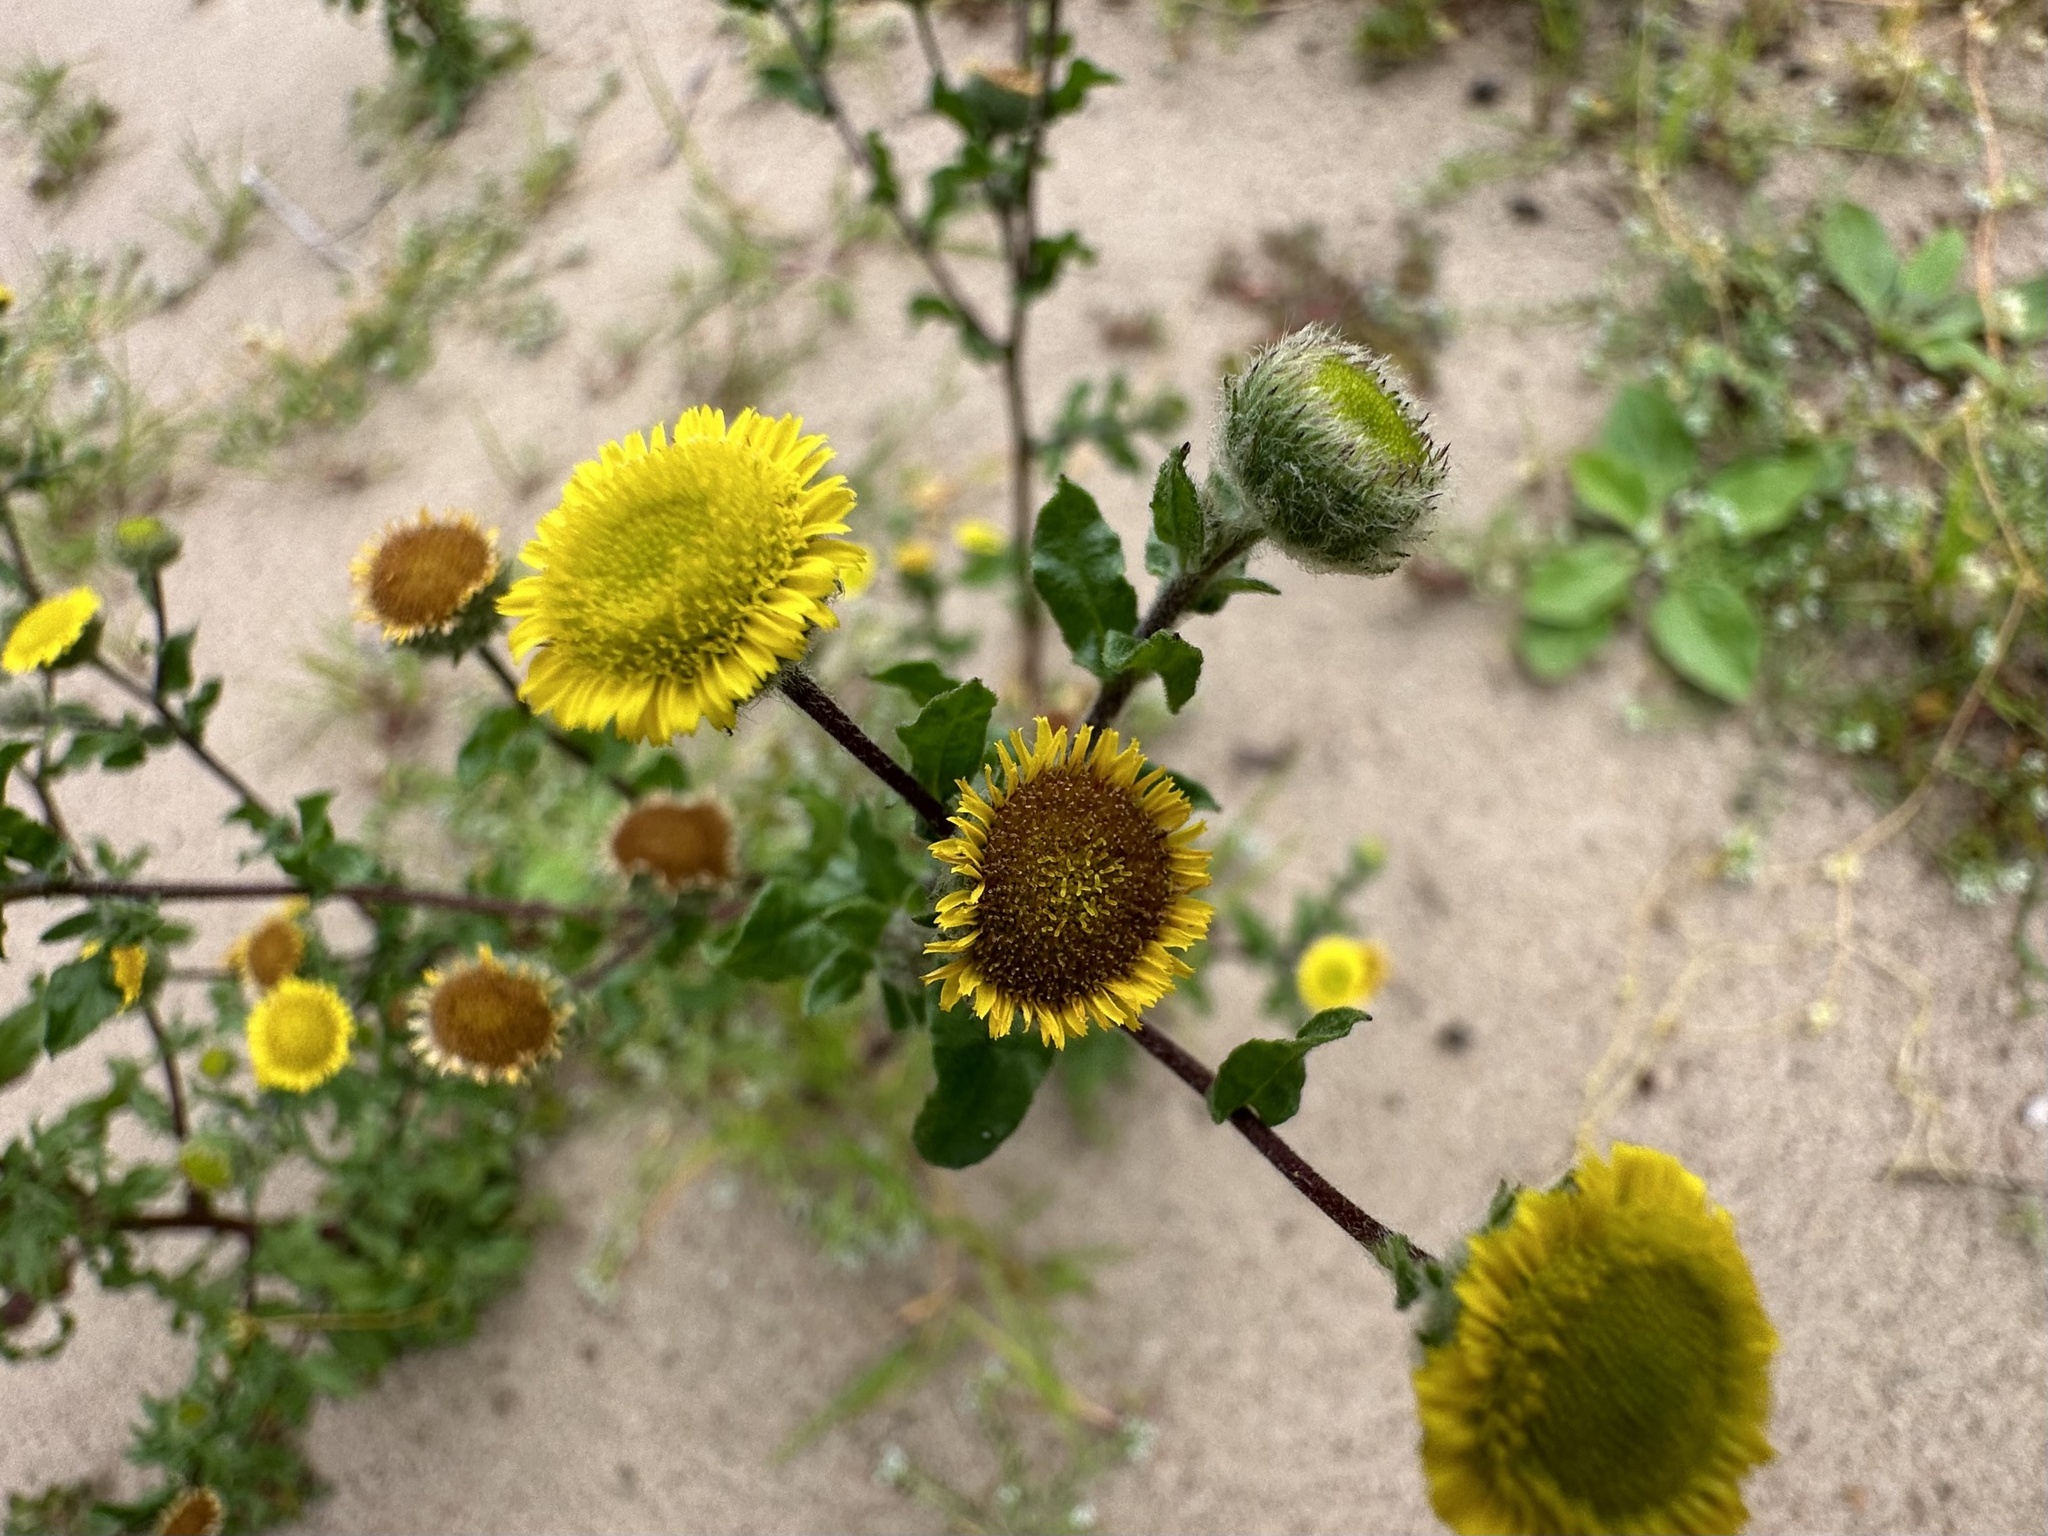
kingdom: Plantae
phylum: Tracheophyta
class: Magnoliopsida
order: Asterales
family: Asteraceae
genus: Pulicaria
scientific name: Pulicaria vulgaris
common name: Small fleabane
